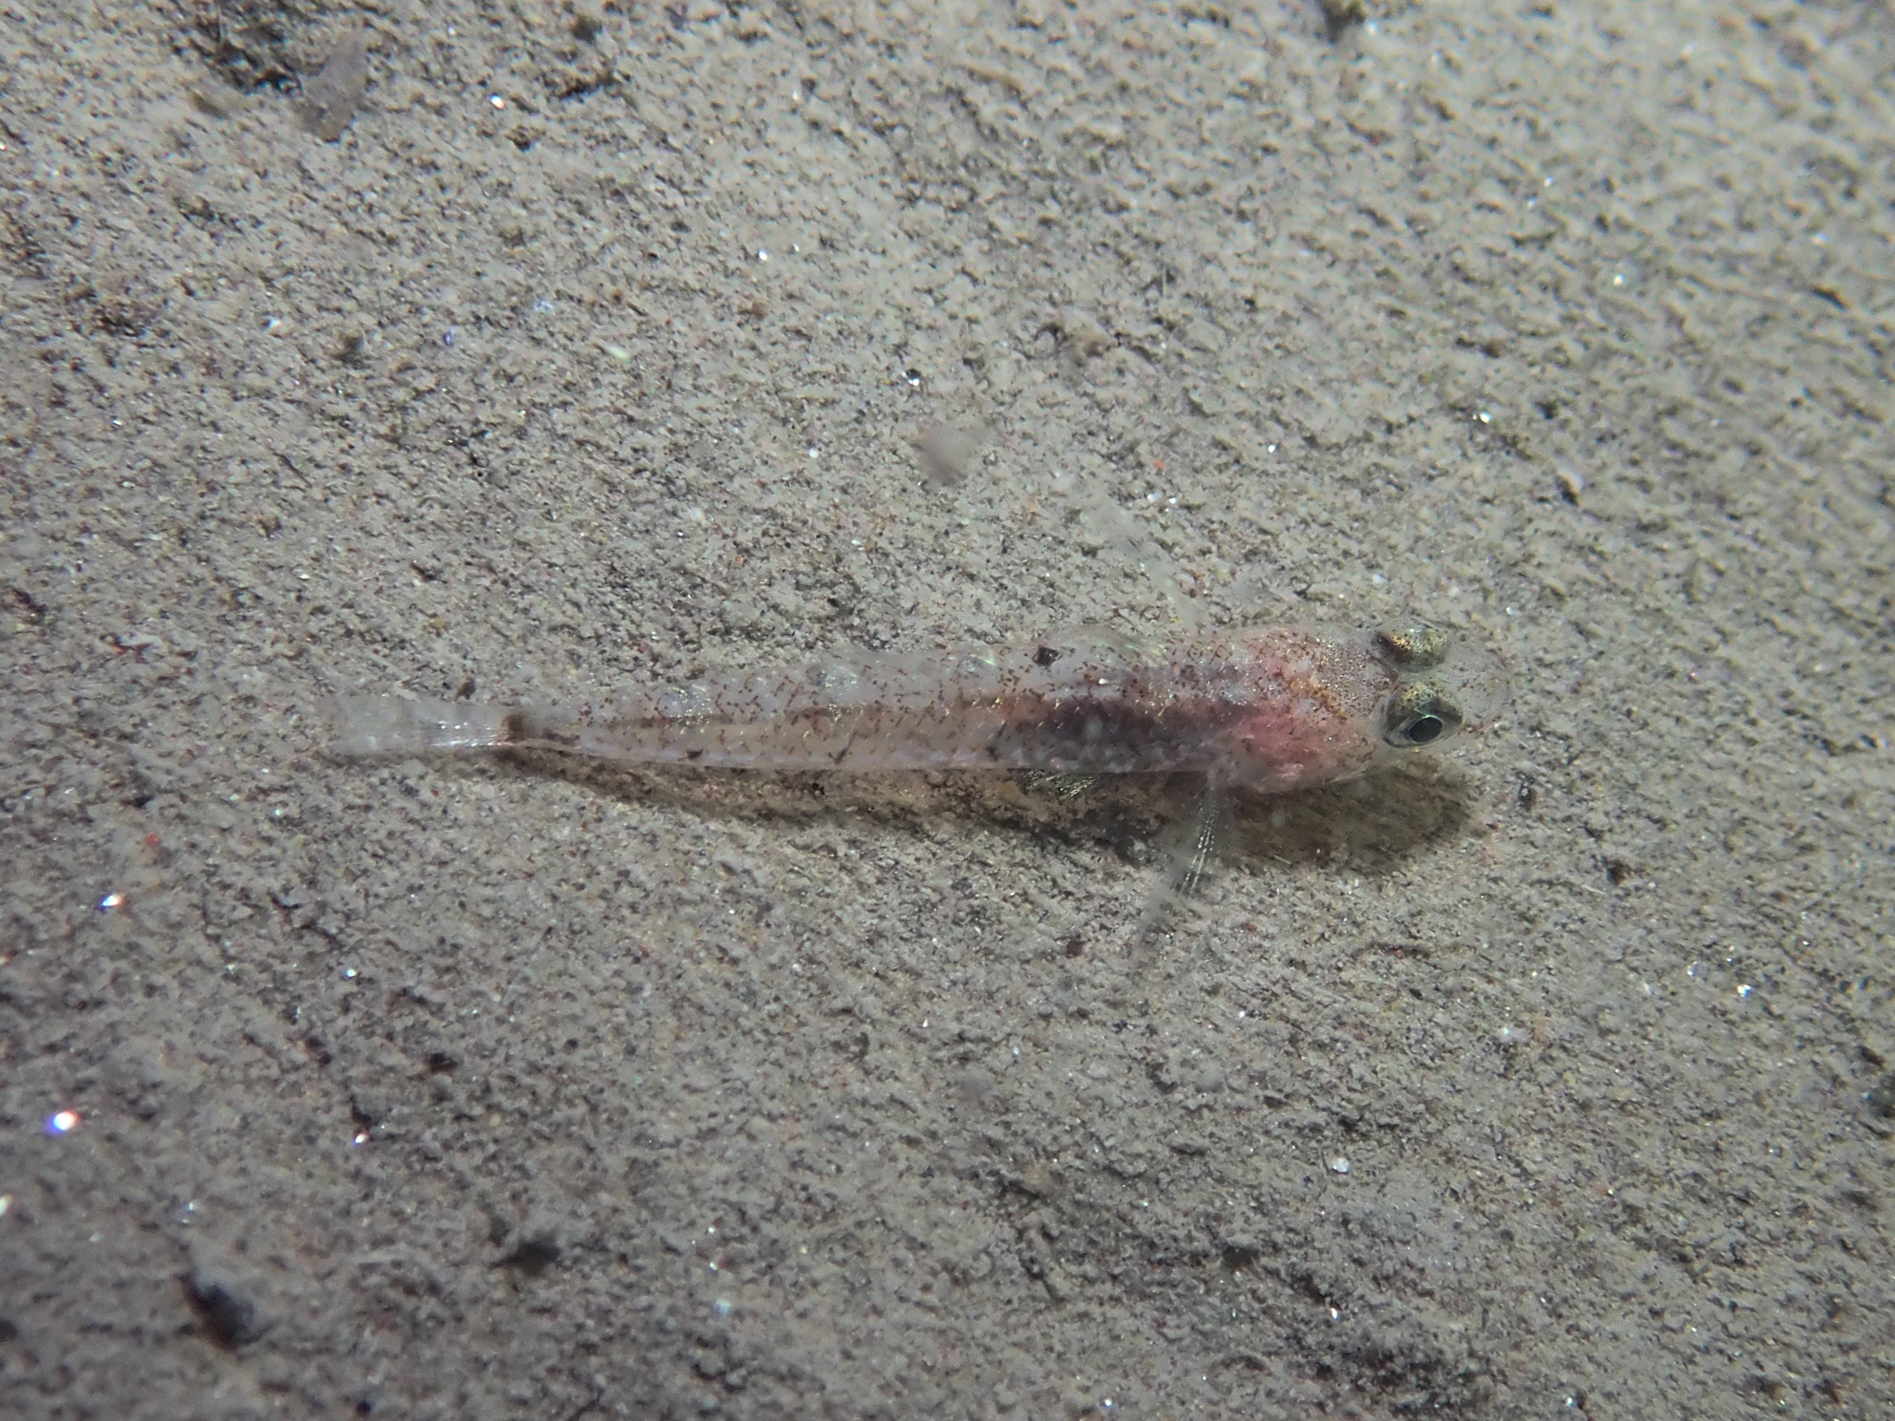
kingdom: Animalia
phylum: Chordata
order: Perciformes
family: Gobiidae
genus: Deltentosteus
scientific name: Deltentosteus quadrimaculatus
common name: Four-spotted goby
